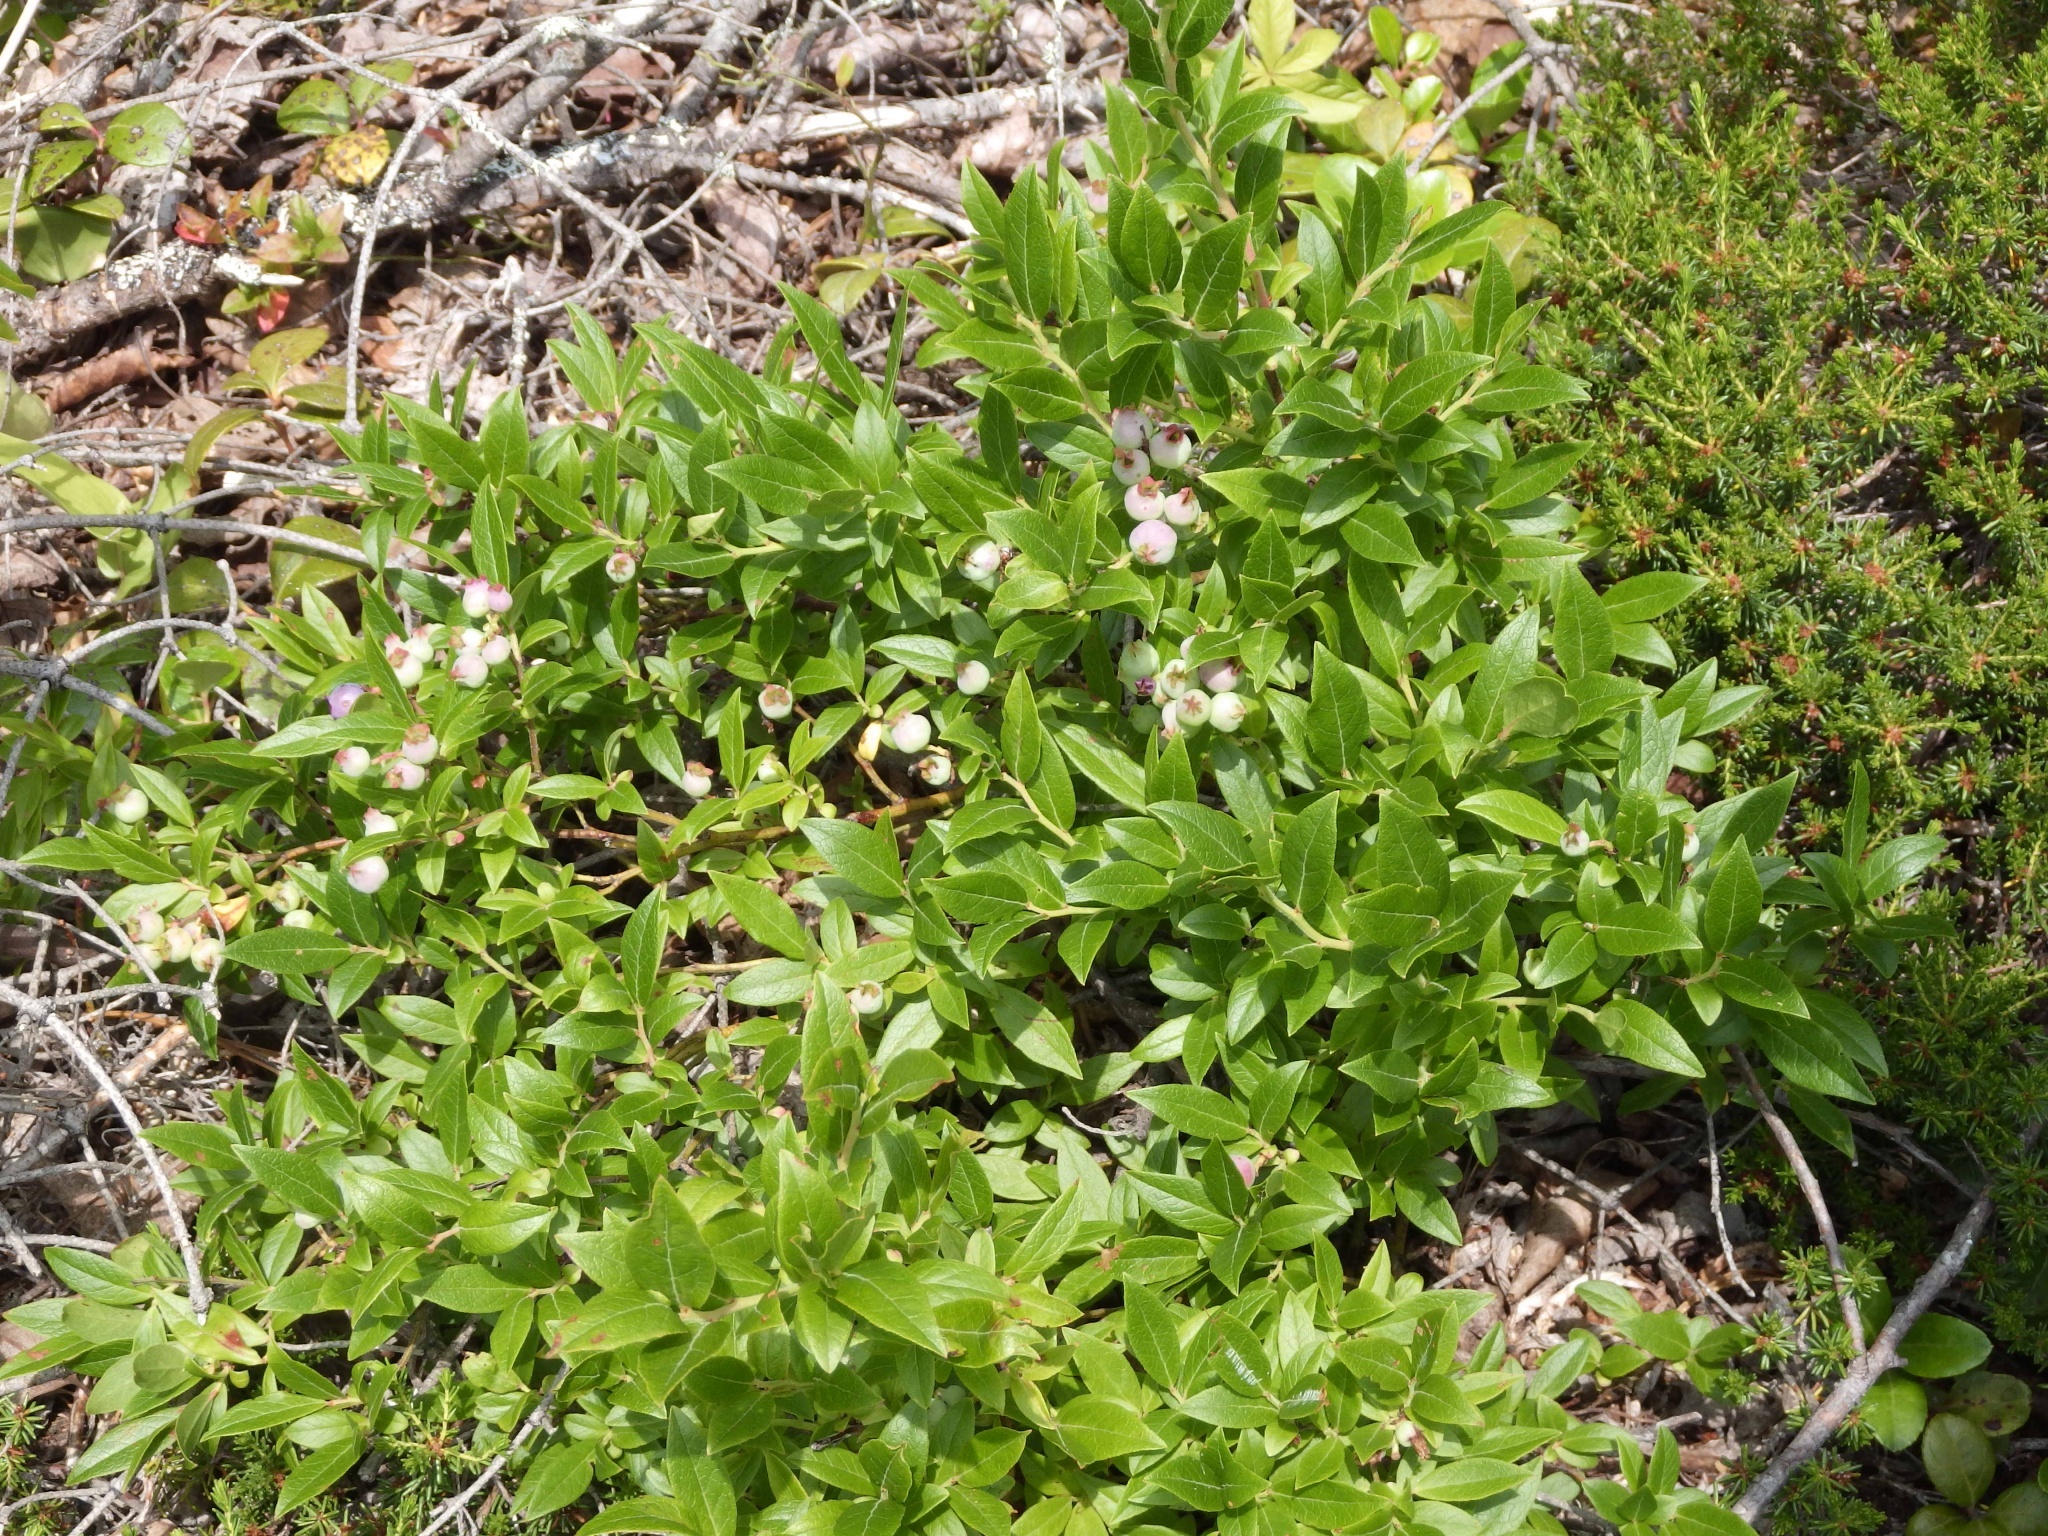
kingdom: Plantae
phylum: Tracheophyta
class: Magnoliopsida
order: Ericales
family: Ericaceae
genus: Vaccinium
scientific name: Vaccinium angustifolium
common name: Early lowbush blueberry
